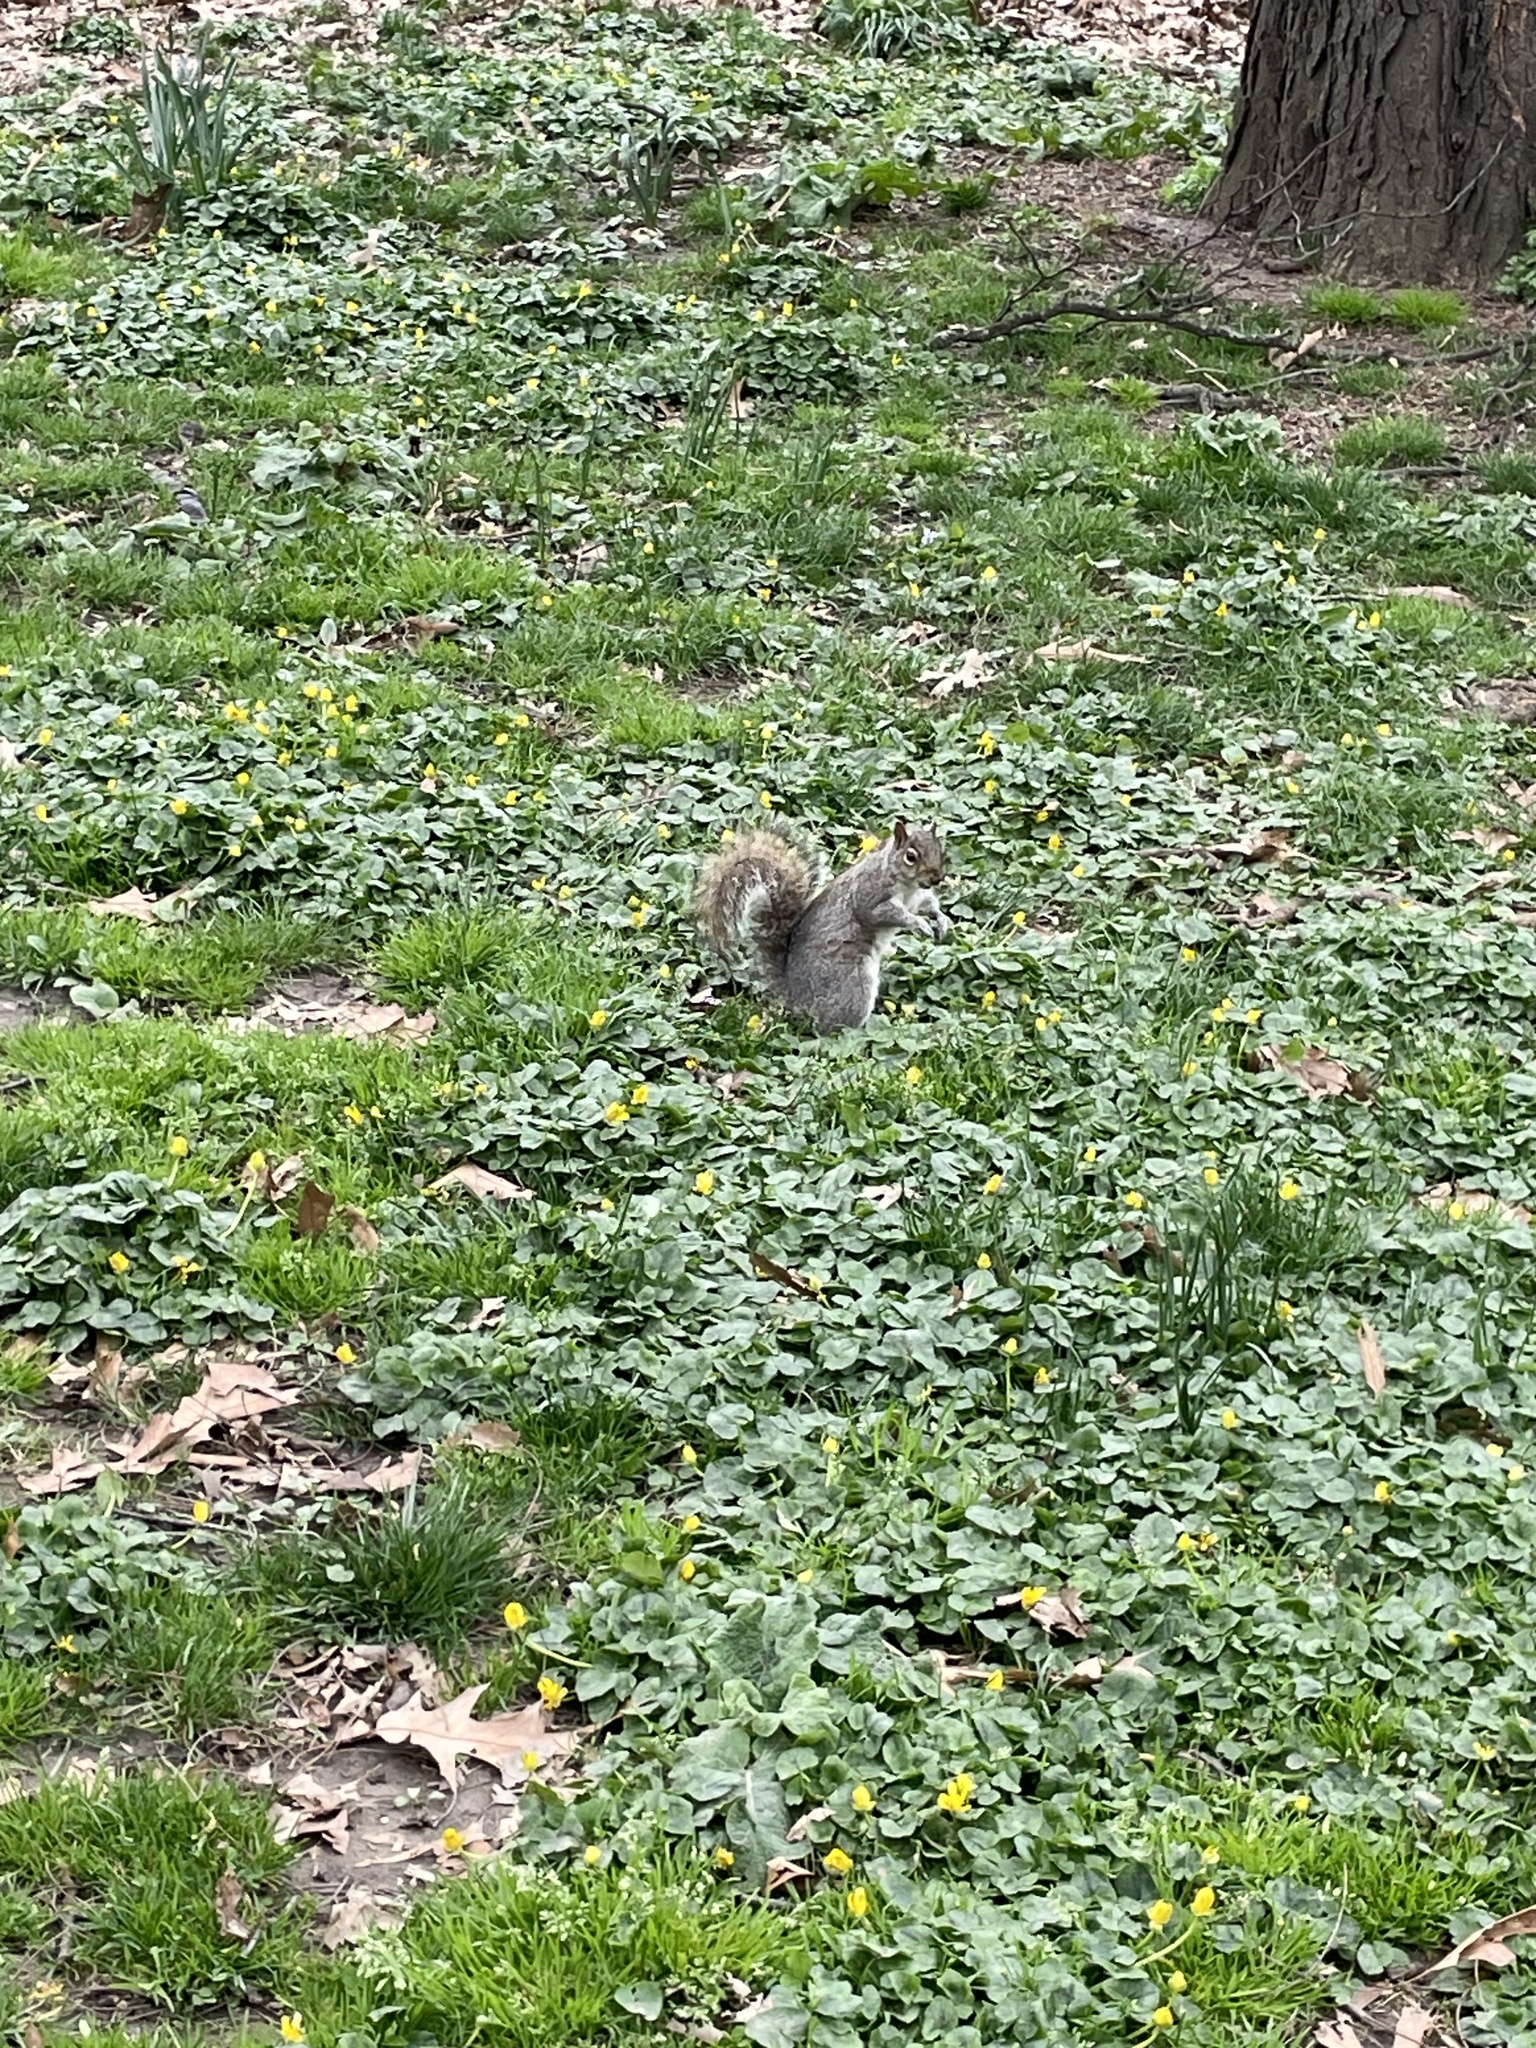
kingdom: Animalia
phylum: Chordata
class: Mammalia
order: Rodentia
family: Sciuridae
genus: Sciurus
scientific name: Sciurus carolinensis
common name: Eastern gray squirrel
